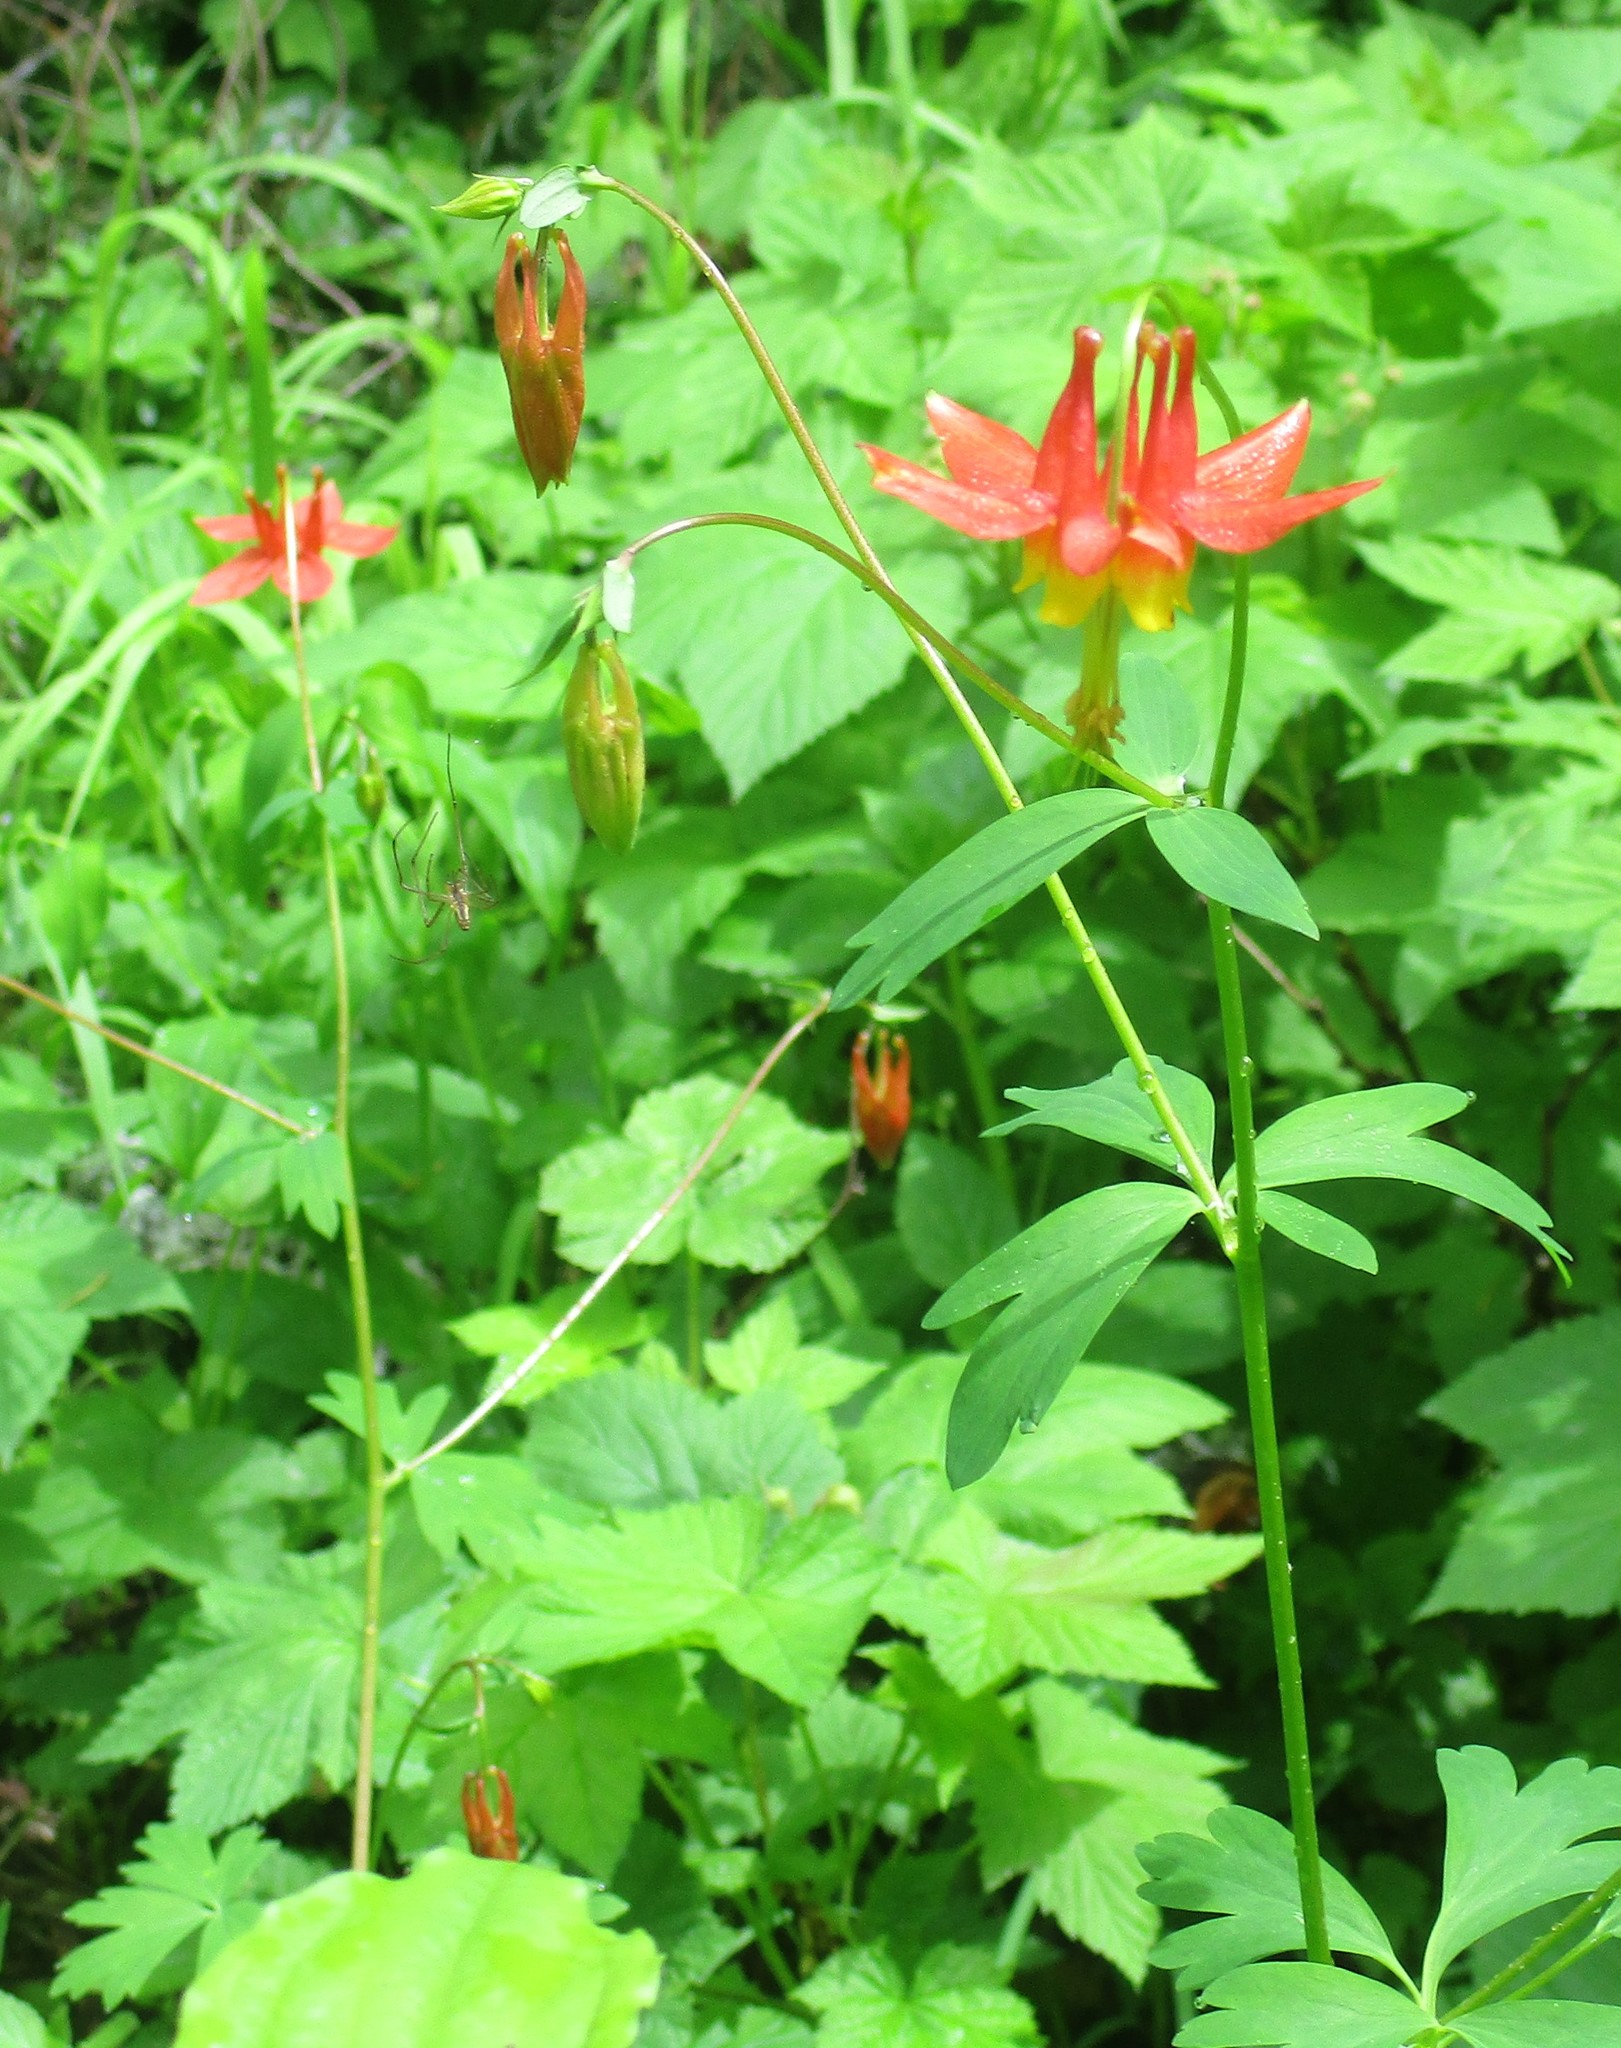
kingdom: Plantae
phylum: Tracheophyta
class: Magnoliopsida
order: Ranunculales
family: Ranunculaceae
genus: Aquilegia
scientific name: Aquilegia formosa
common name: Sitka columbine
